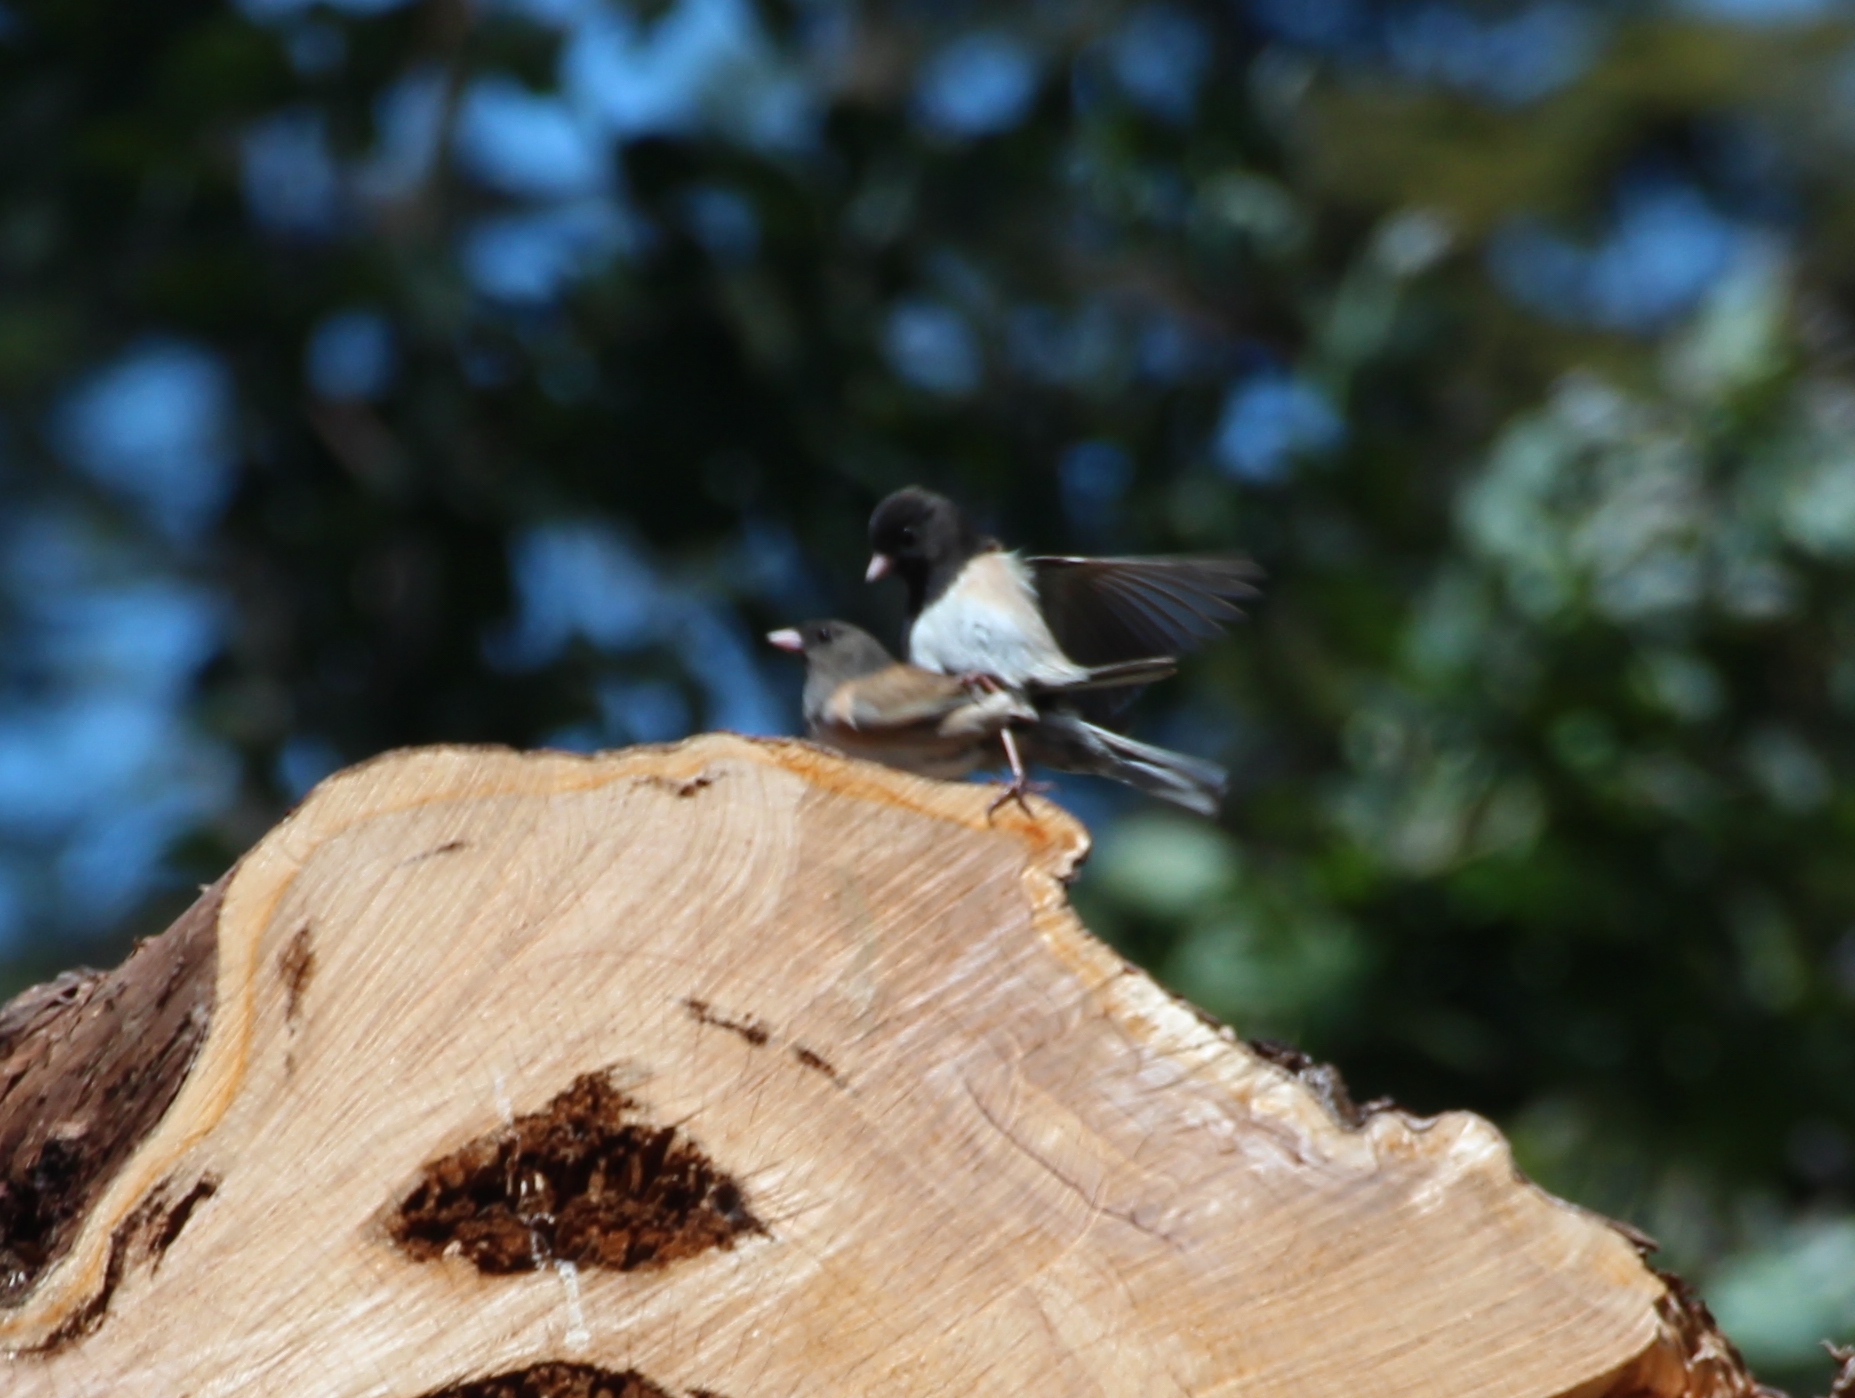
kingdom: Animalia
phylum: Chordata
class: Aves
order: Passeriformes
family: Passerellidae
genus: Junco
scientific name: Junco hyemalis
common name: Dark-eyed junco
